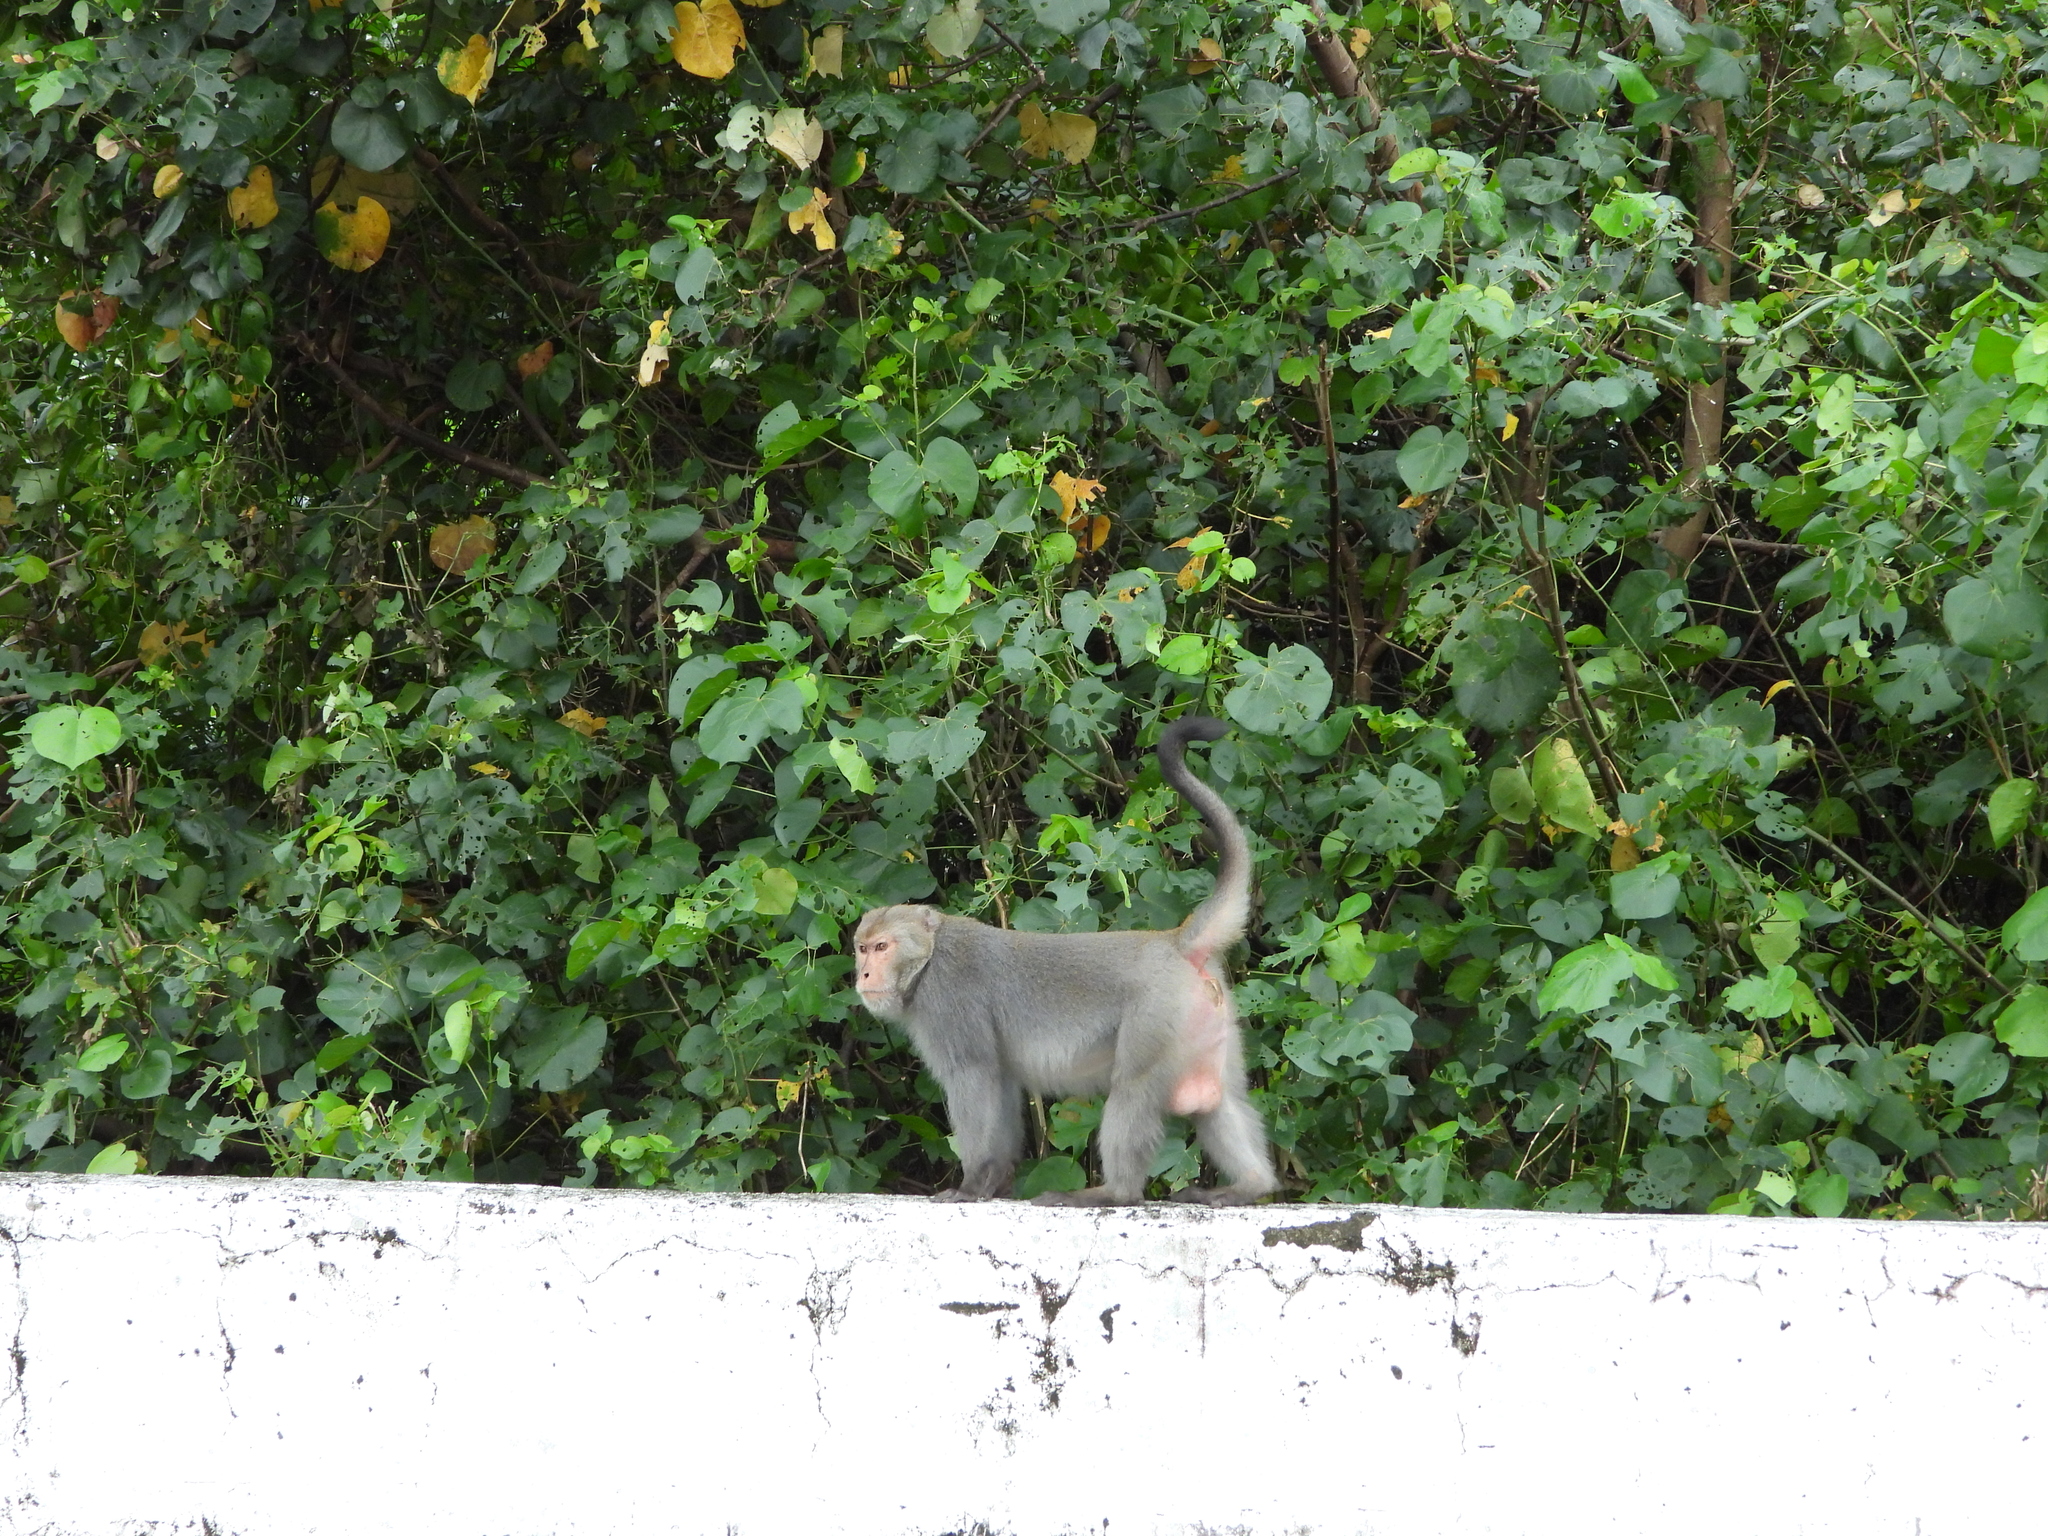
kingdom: Animalia
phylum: Chordata
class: Mammalia
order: Primates
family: Cercopithecidae
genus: Macaca
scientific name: Macaca cyclopis
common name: Formosan rock macaque
